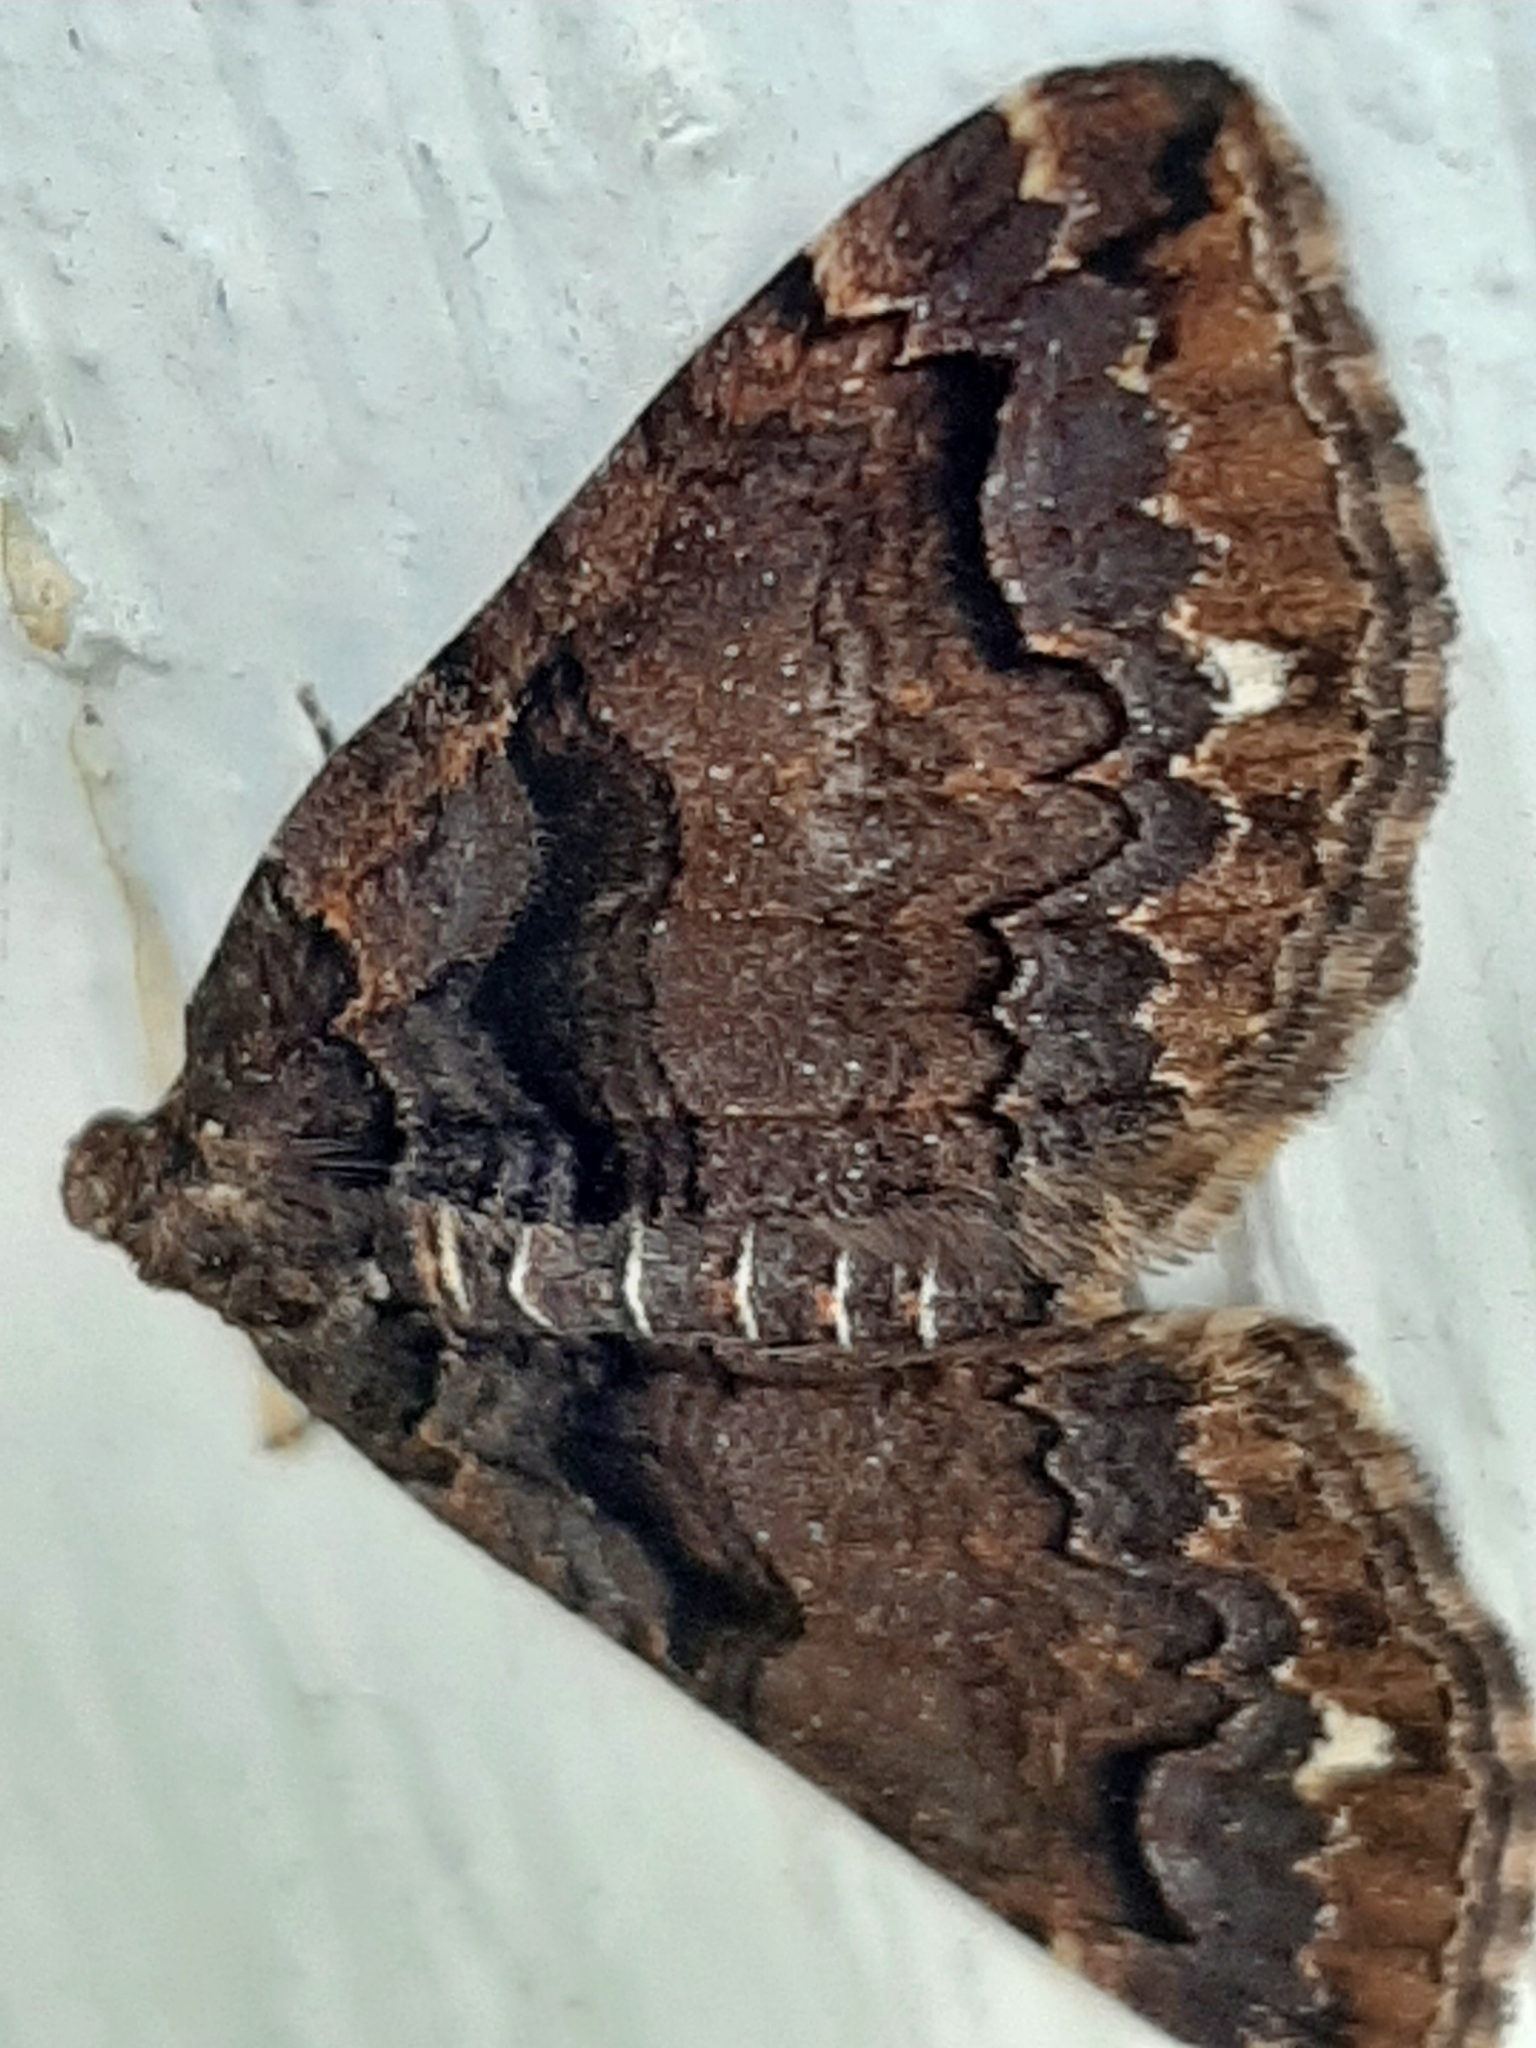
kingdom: Animalia
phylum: Arthropoda
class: Insecta
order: Lepidoptera
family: Geometridae
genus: Anticlea
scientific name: Anticlea vasiliata
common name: Variable carpet
